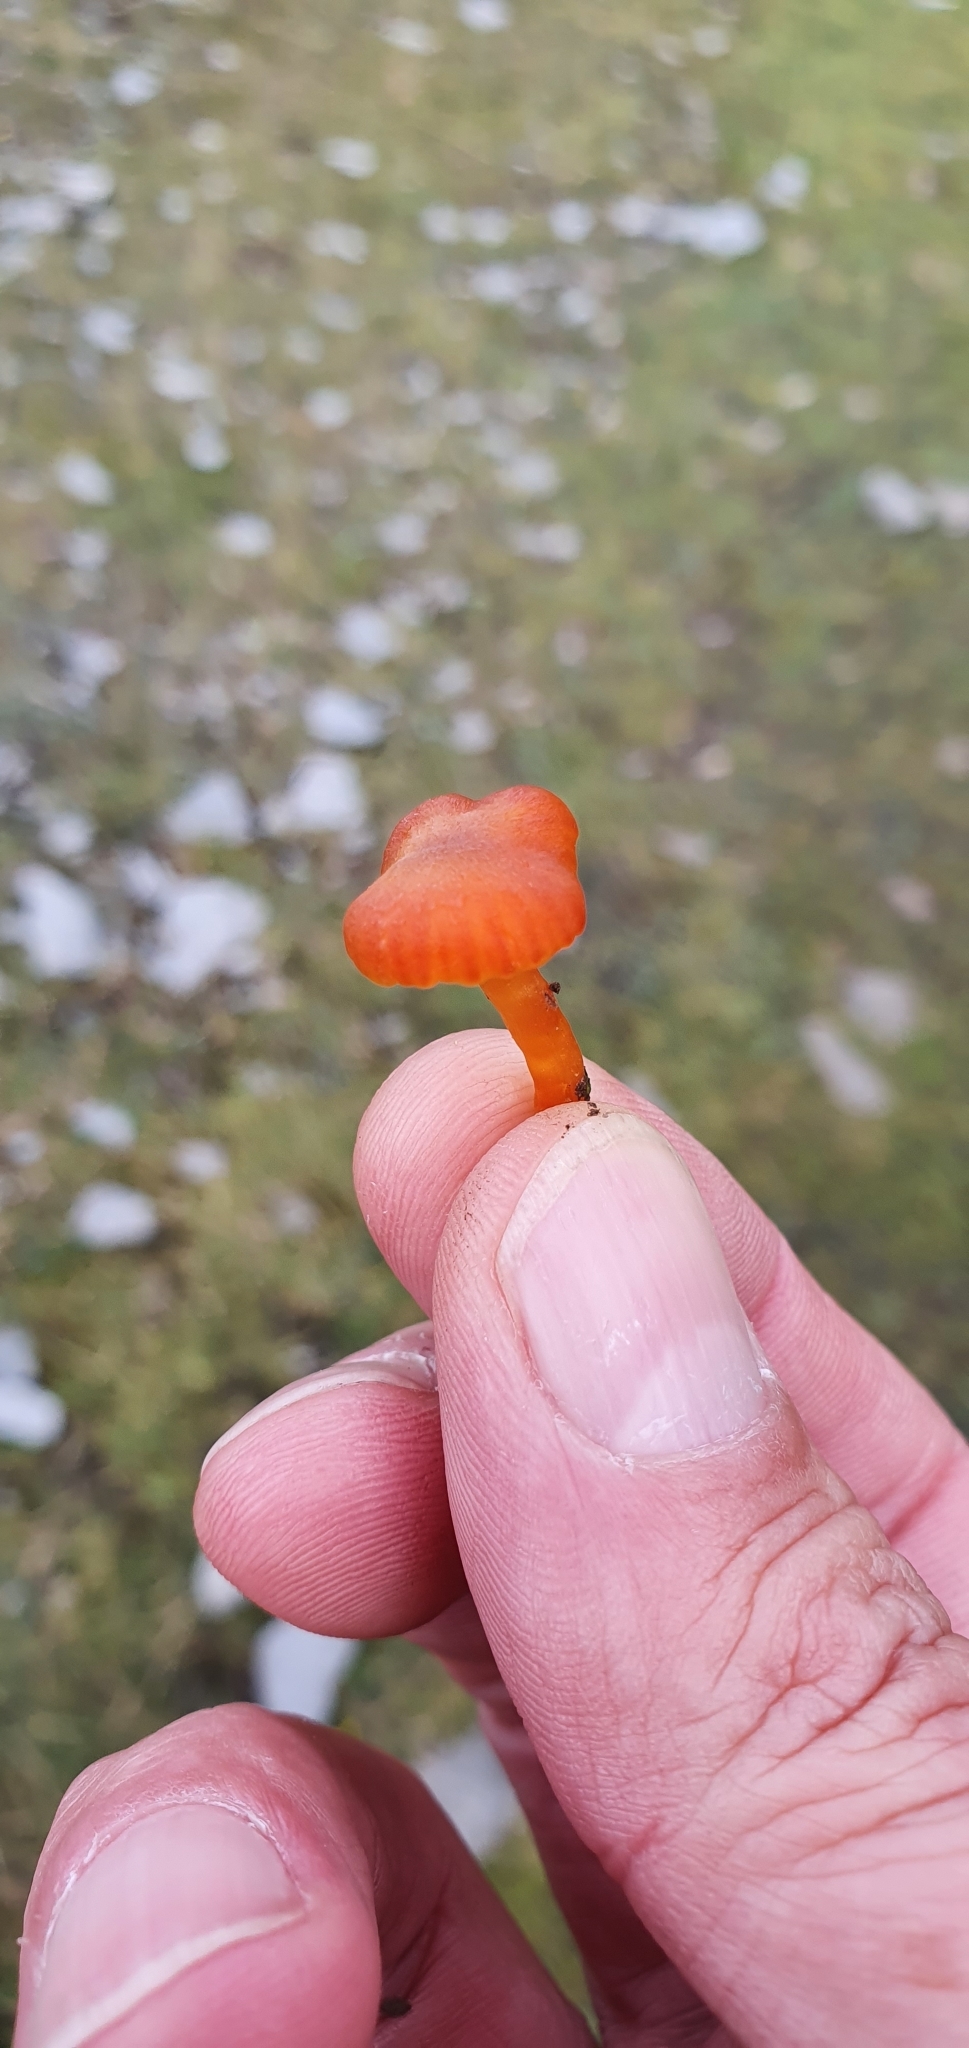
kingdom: Fungi
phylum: Basidiomycota
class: Agaricomycetes
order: Agaricales
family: Hygrophoraceae
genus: Hygrocybe
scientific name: Hygrocybe insipida
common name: Spangle waxcap
